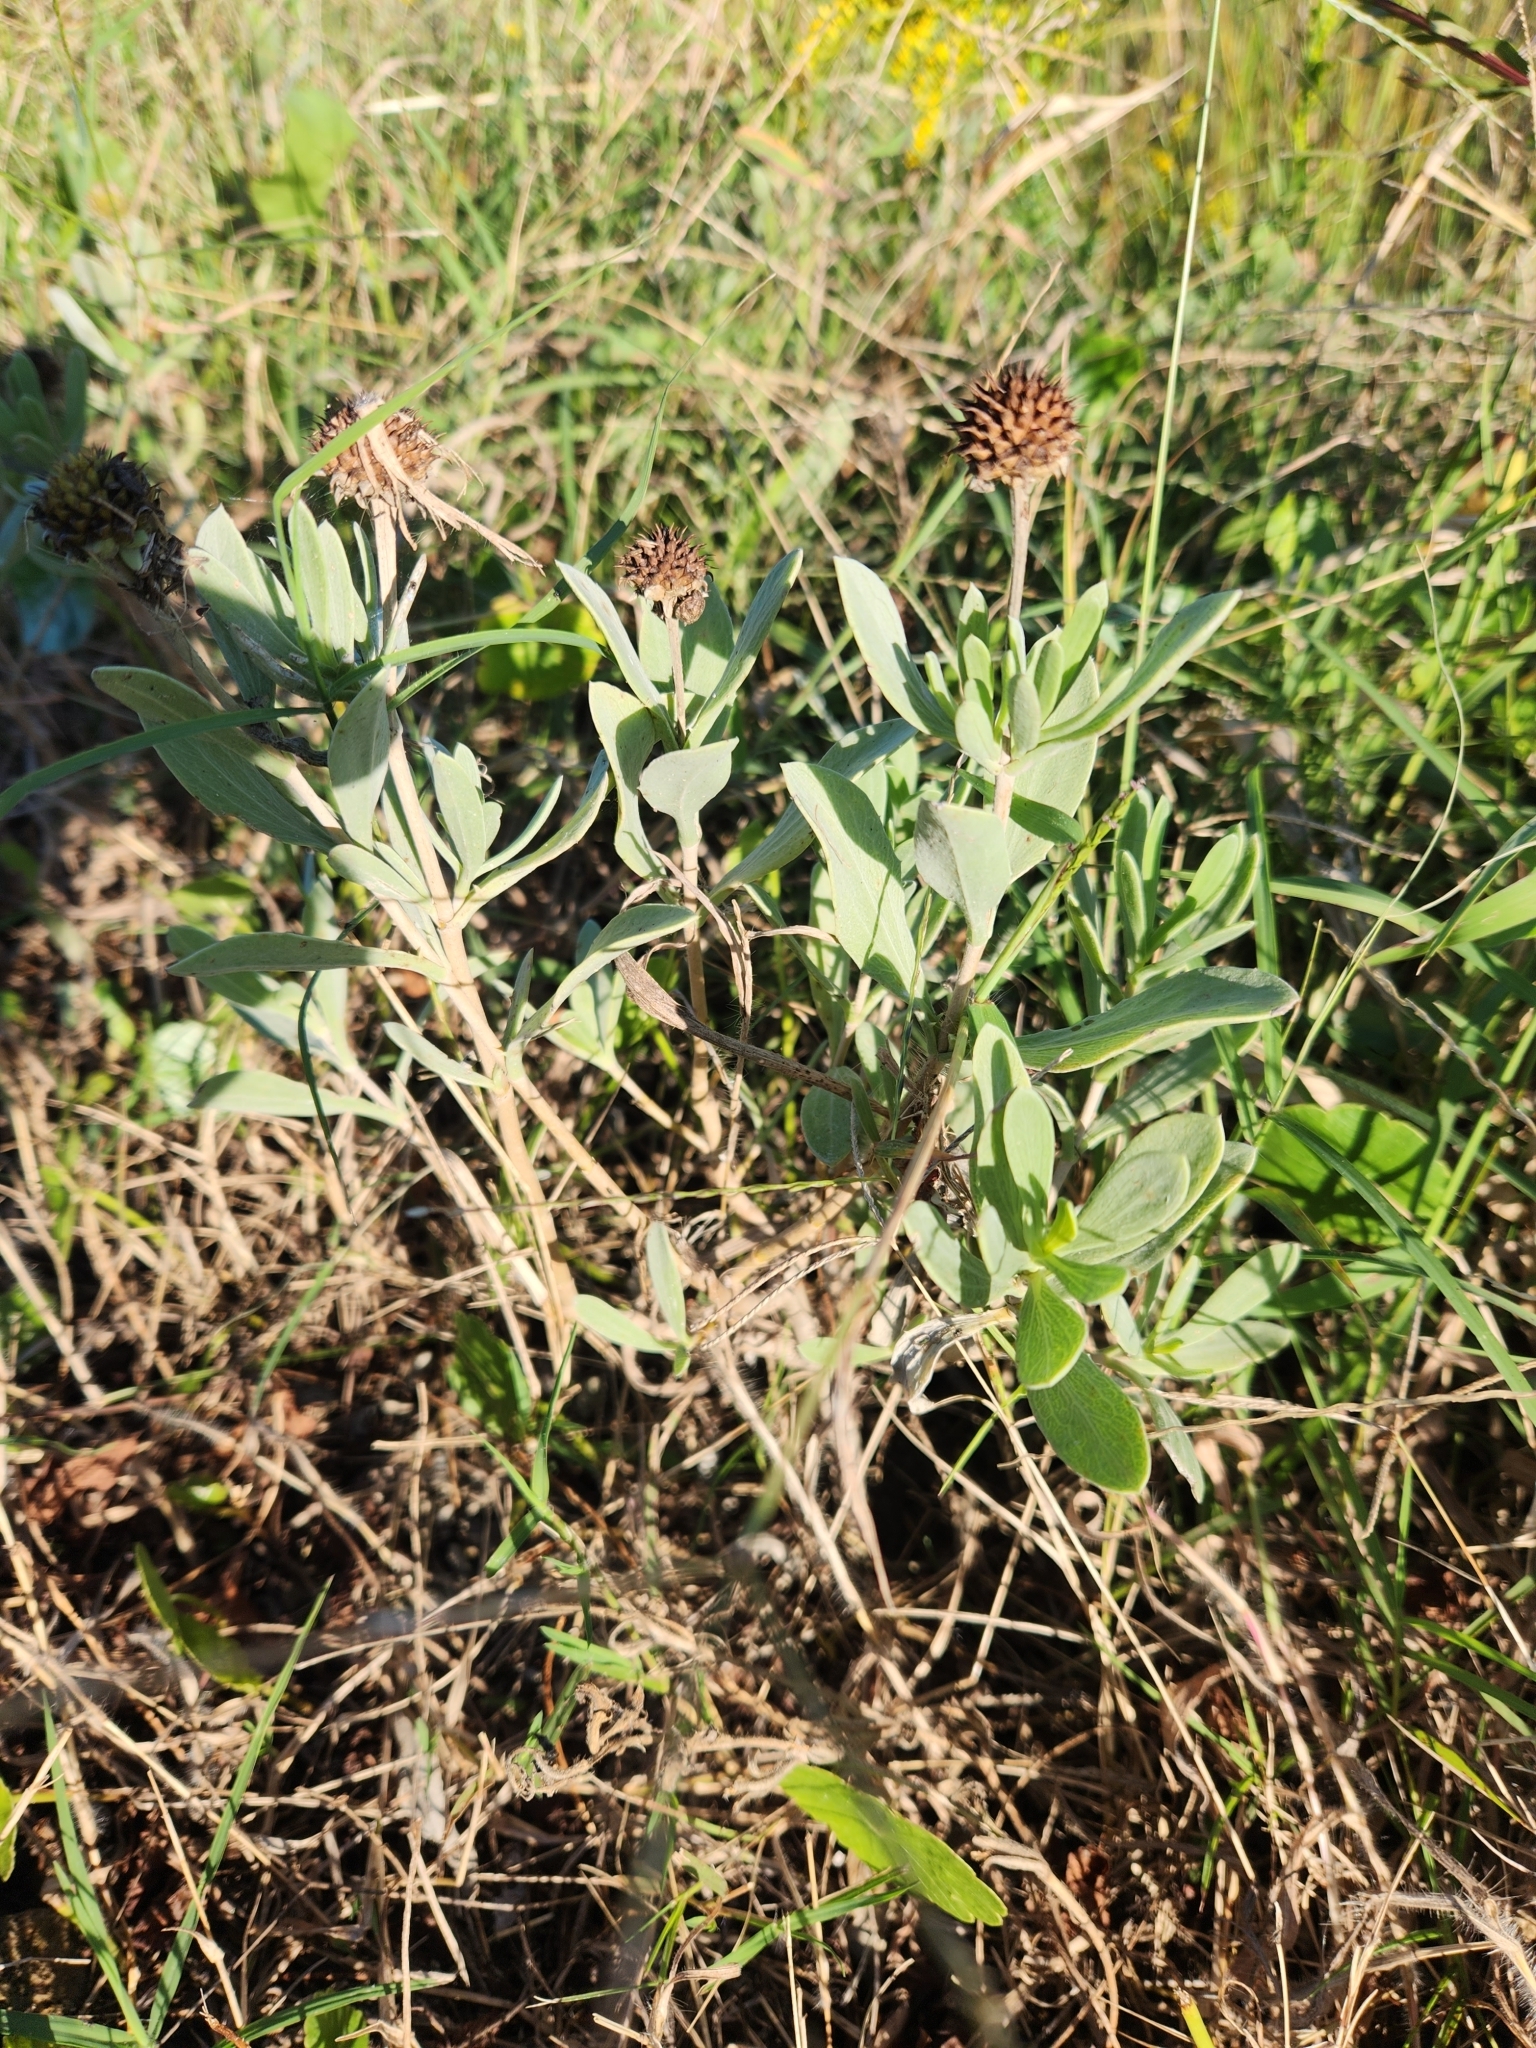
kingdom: Plantae
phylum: Tracheophyta
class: Magnoliopsida
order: Asterales
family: Asteraceae
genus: Borrichia
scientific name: Borrichia frutescens
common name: Sea oxeye
